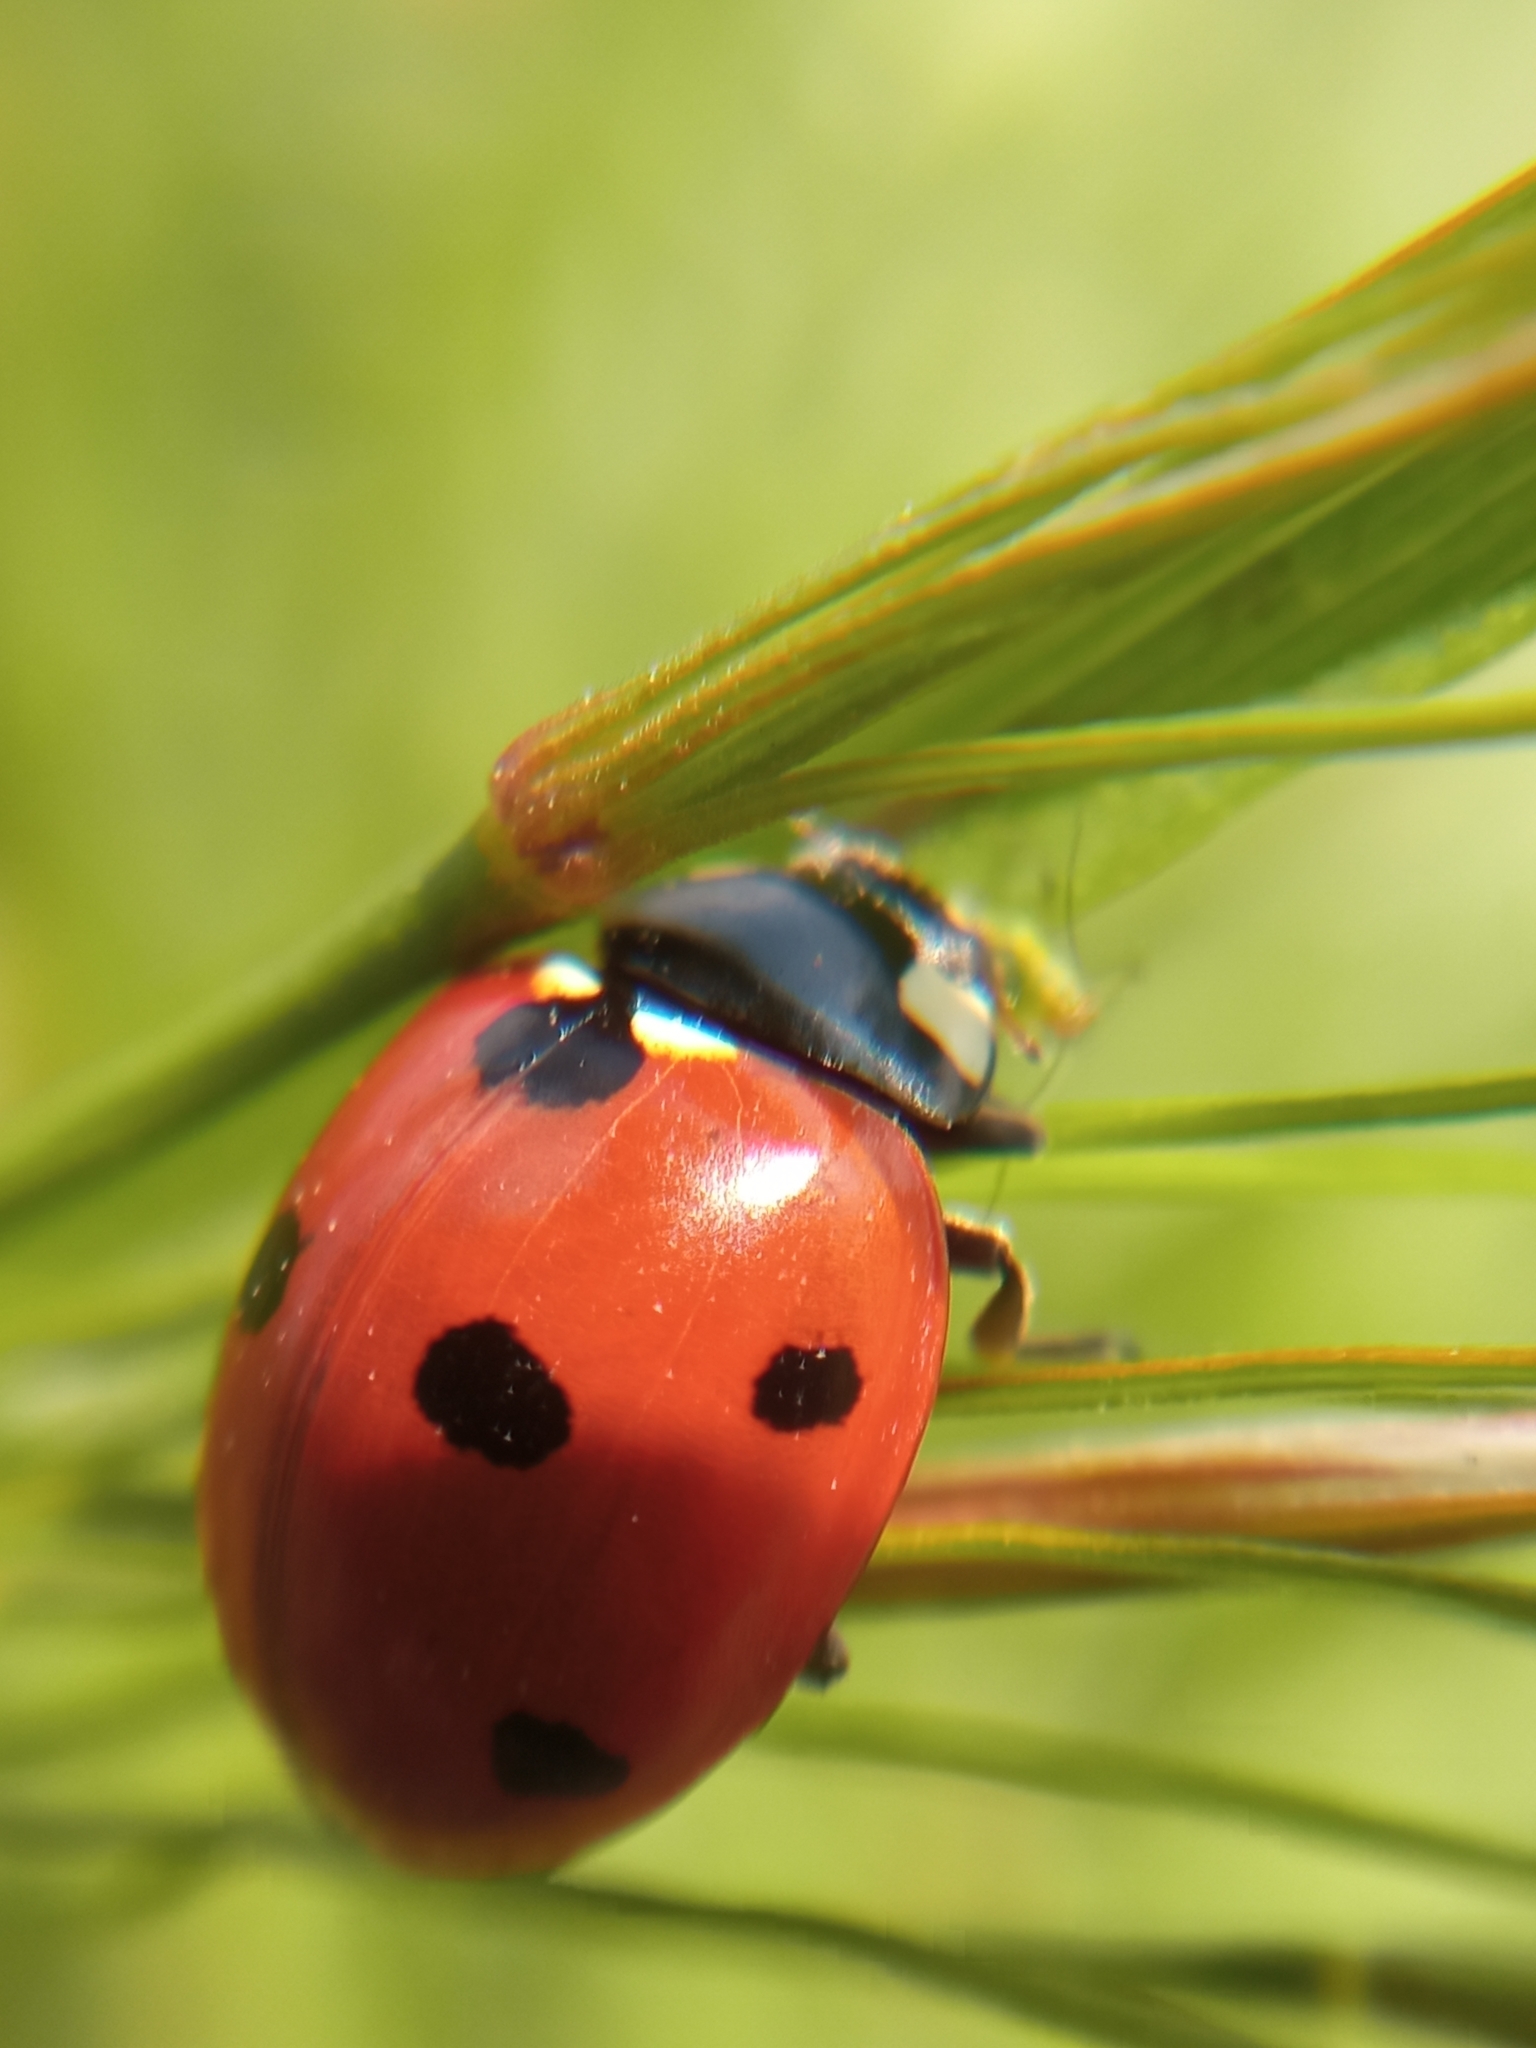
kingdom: Animalia
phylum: Arthropoda
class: Insecta
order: Coleoptera
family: Coccinellidae
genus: Coccinella
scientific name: Coccinella septempunctata
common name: Sevenspotted lady beetle
